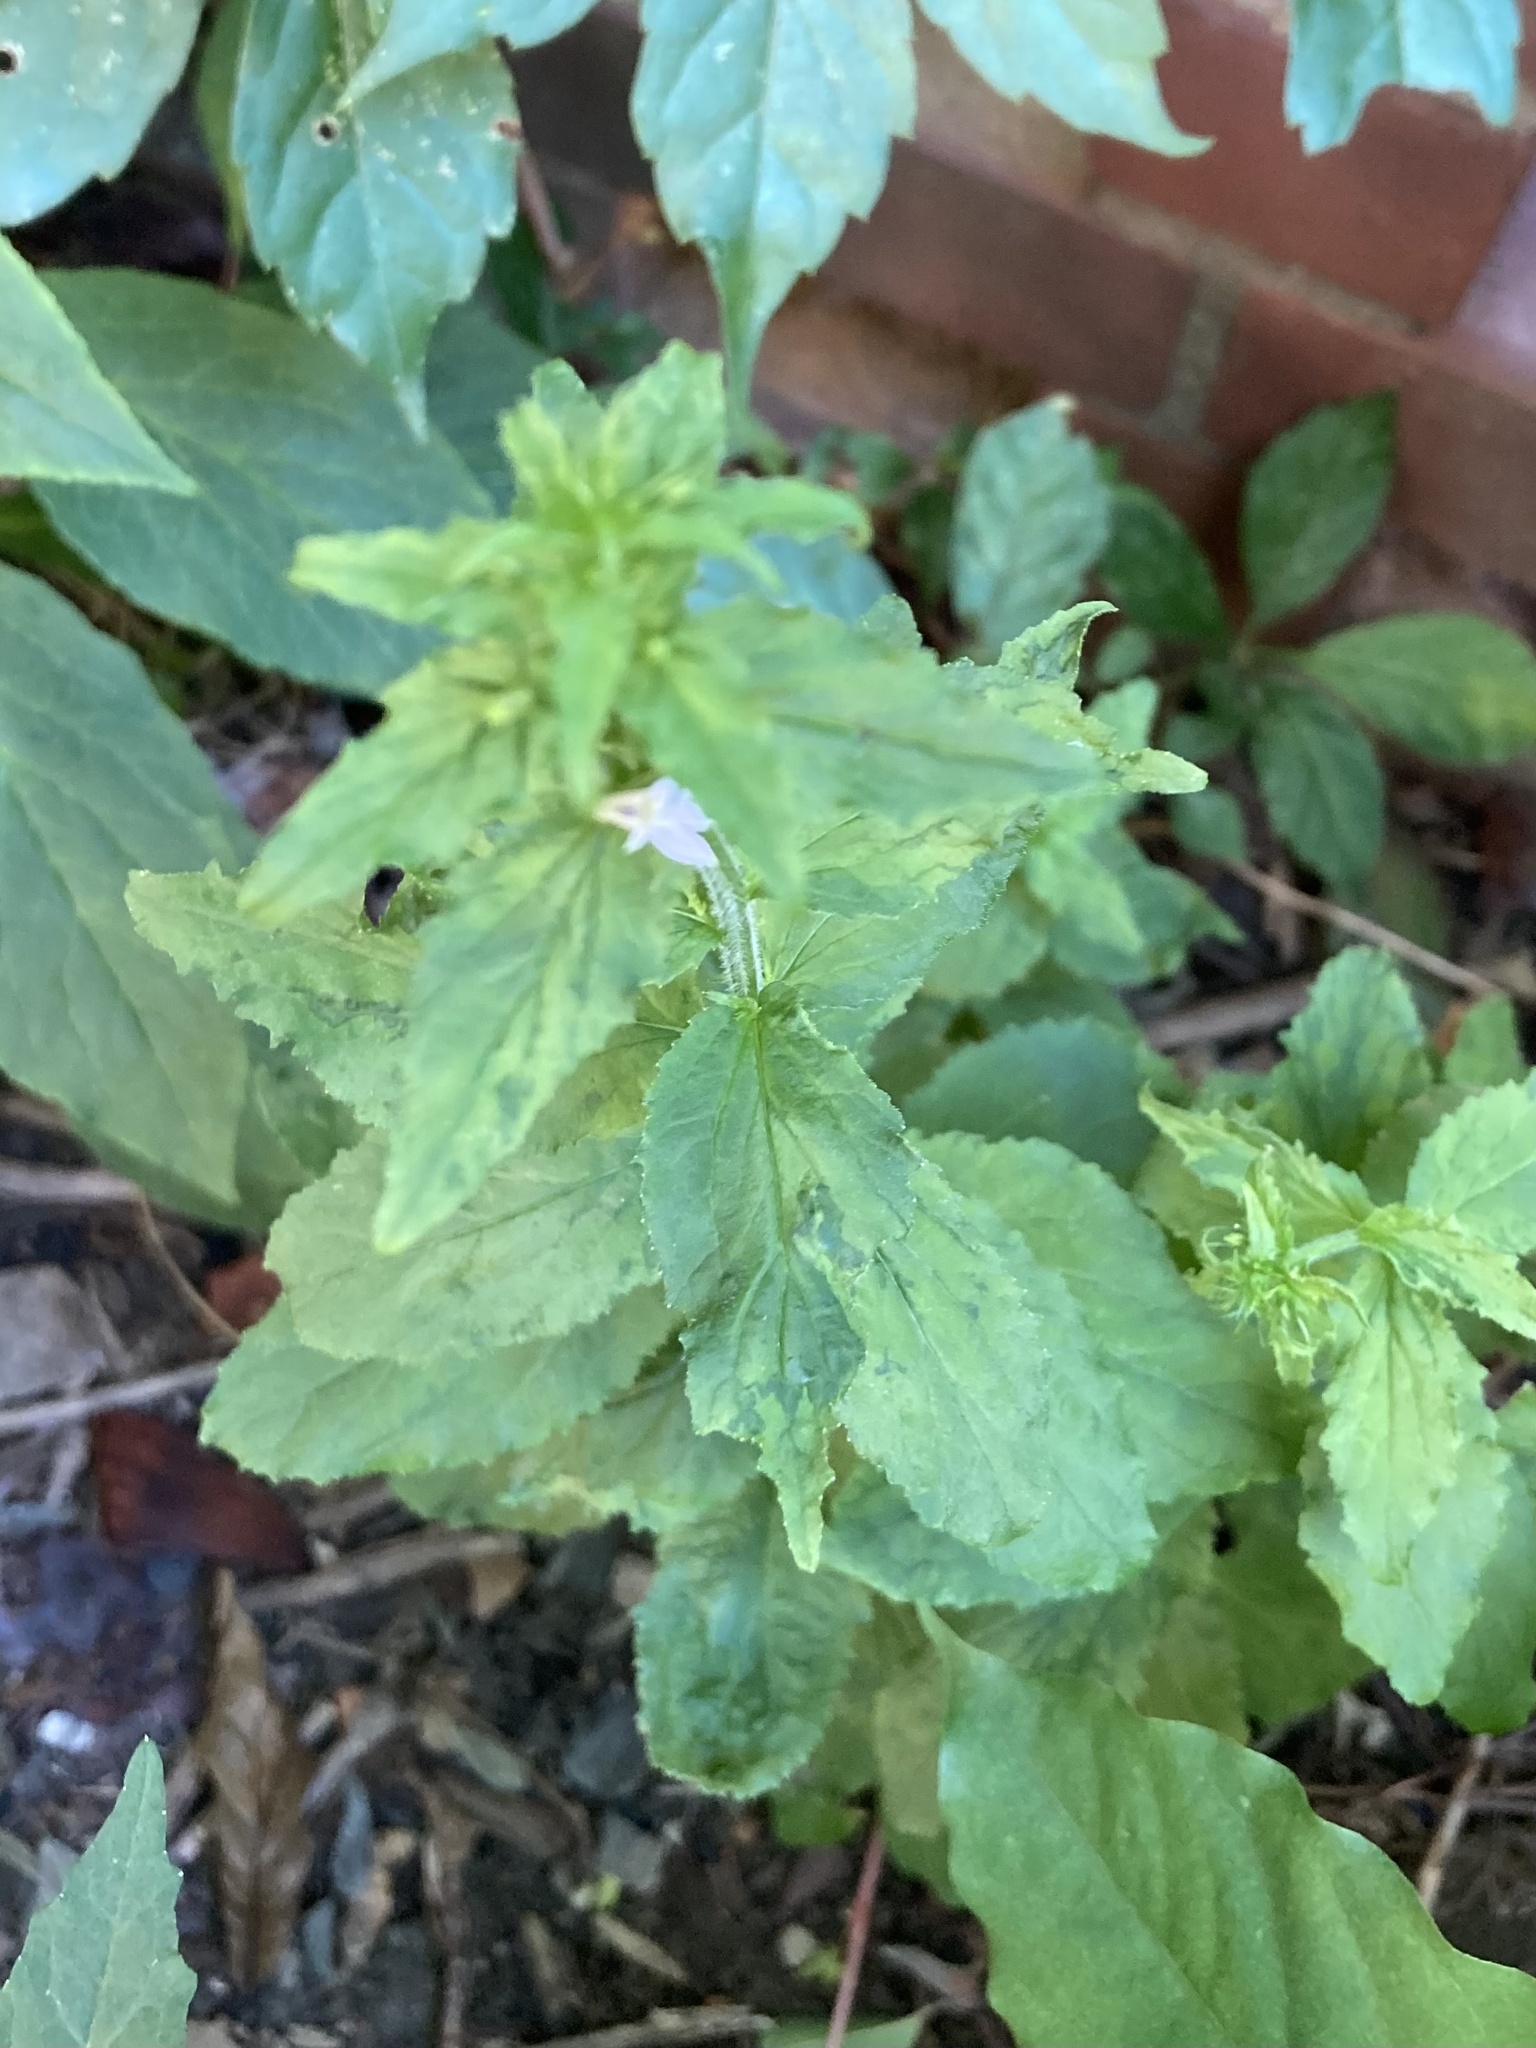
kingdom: Plantae
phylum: Tracheophyta
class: Magnoliopsida
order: Asterales
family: Campanulaceae
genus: Lobelia
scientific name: Lobelia inflata
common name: Indian tobacco
